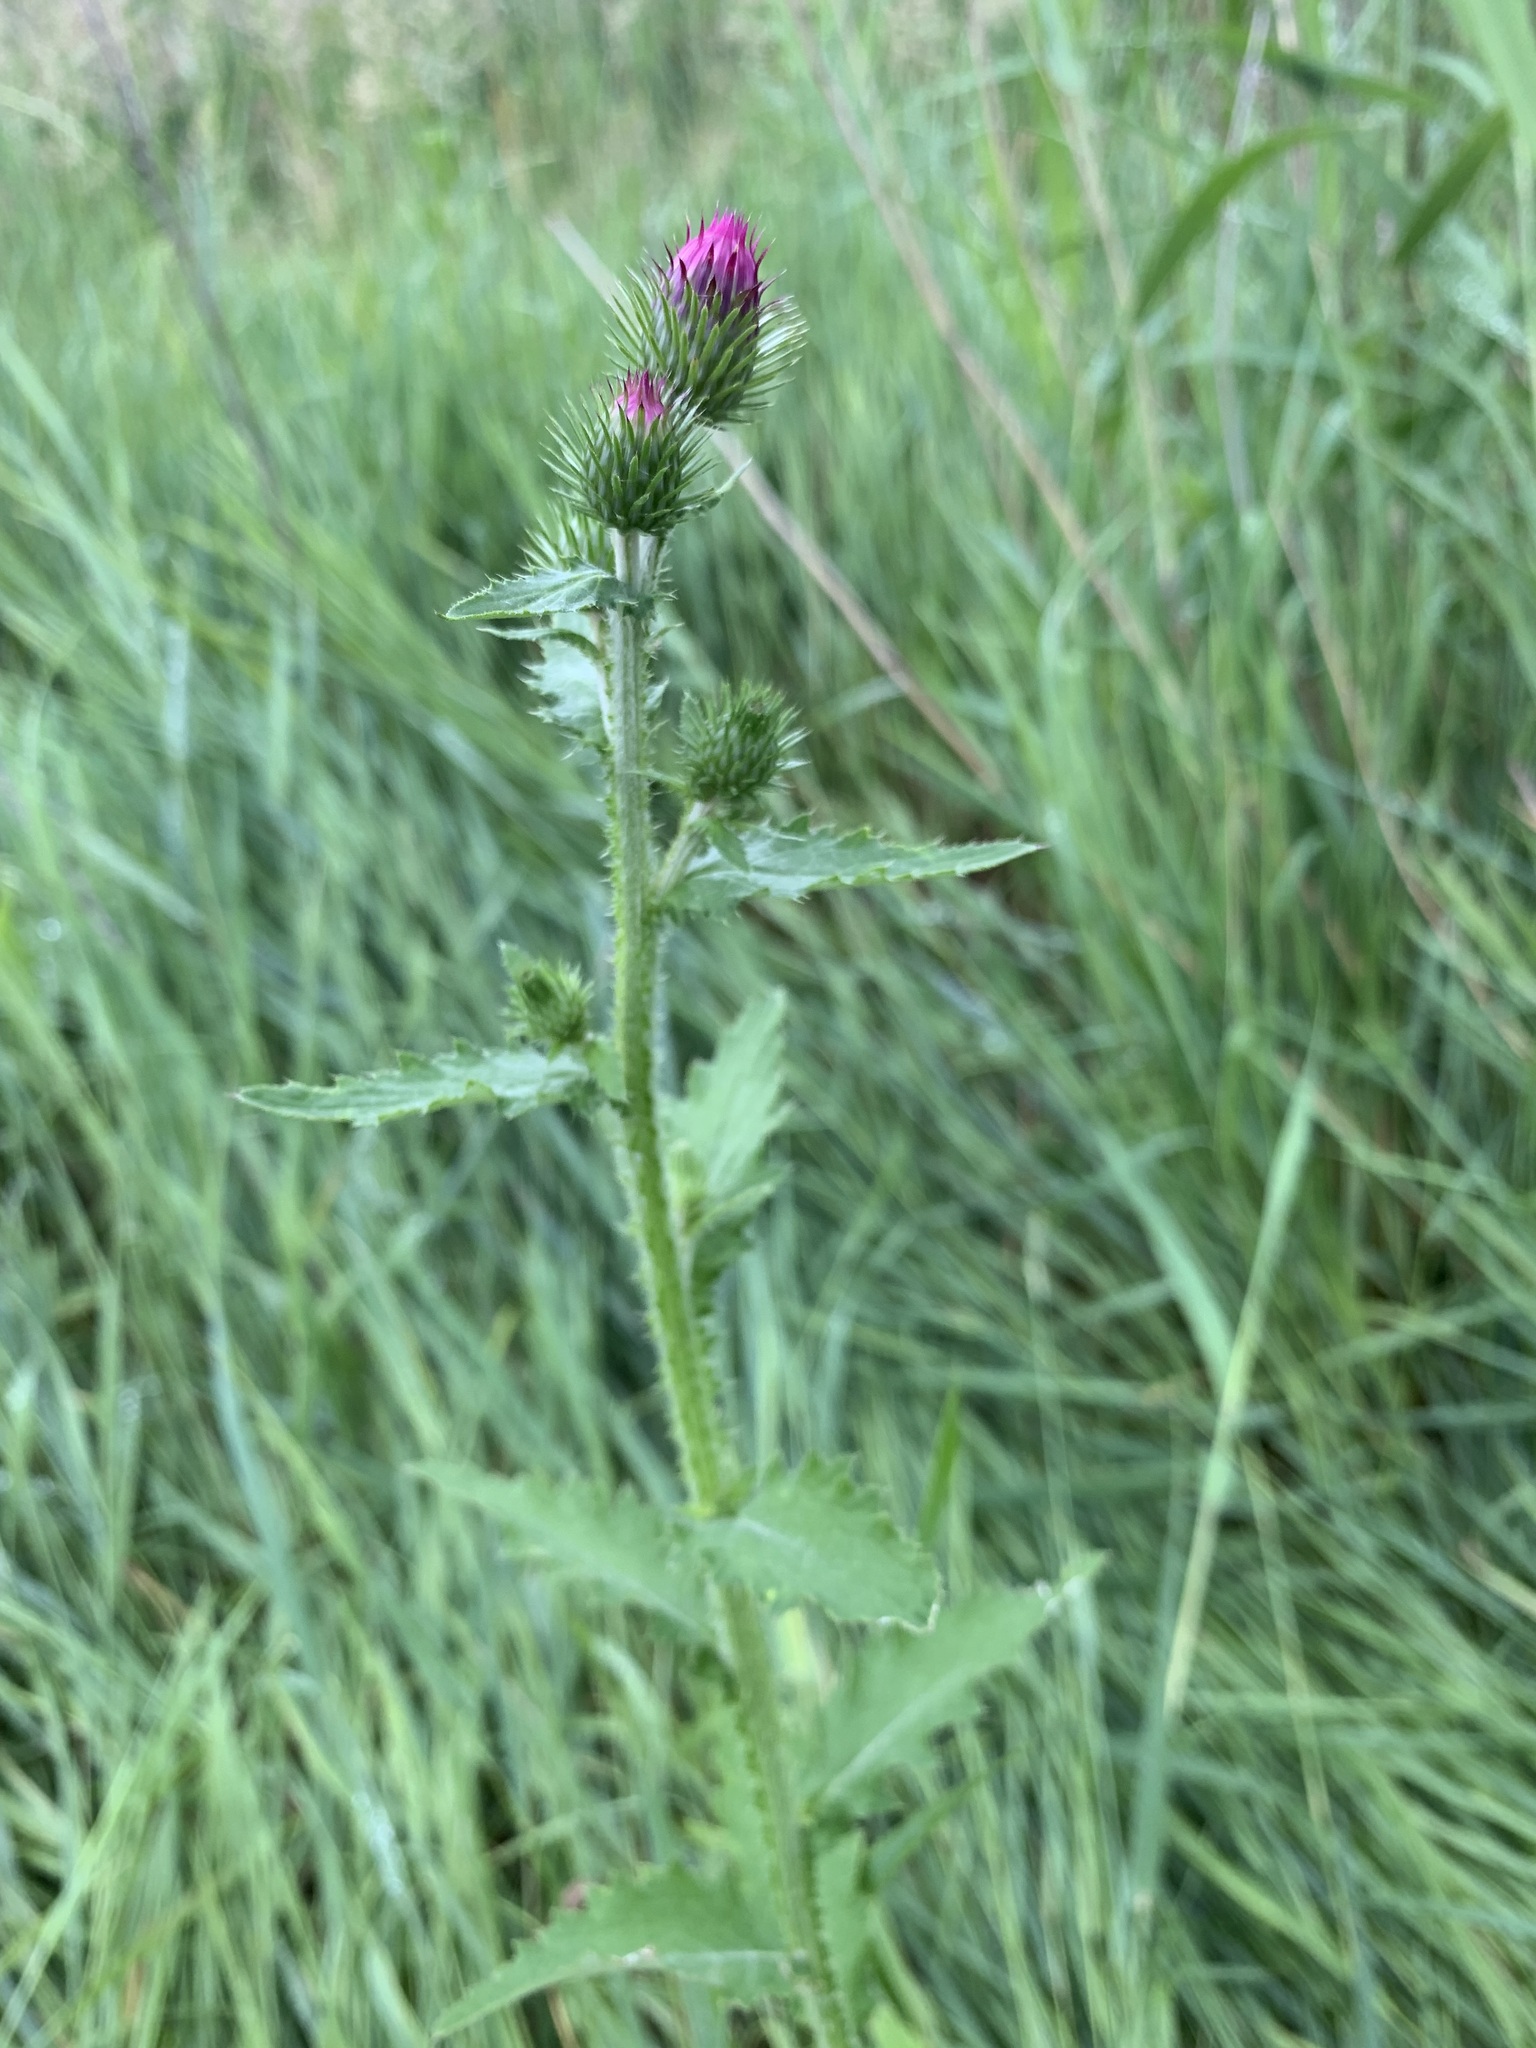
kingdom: Plantae
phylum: Tracheophyta
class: Magnoliopsida
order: Asterales
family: Asteraceae
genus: Carduus
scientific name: Carduus crispus
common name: Welted thistle
